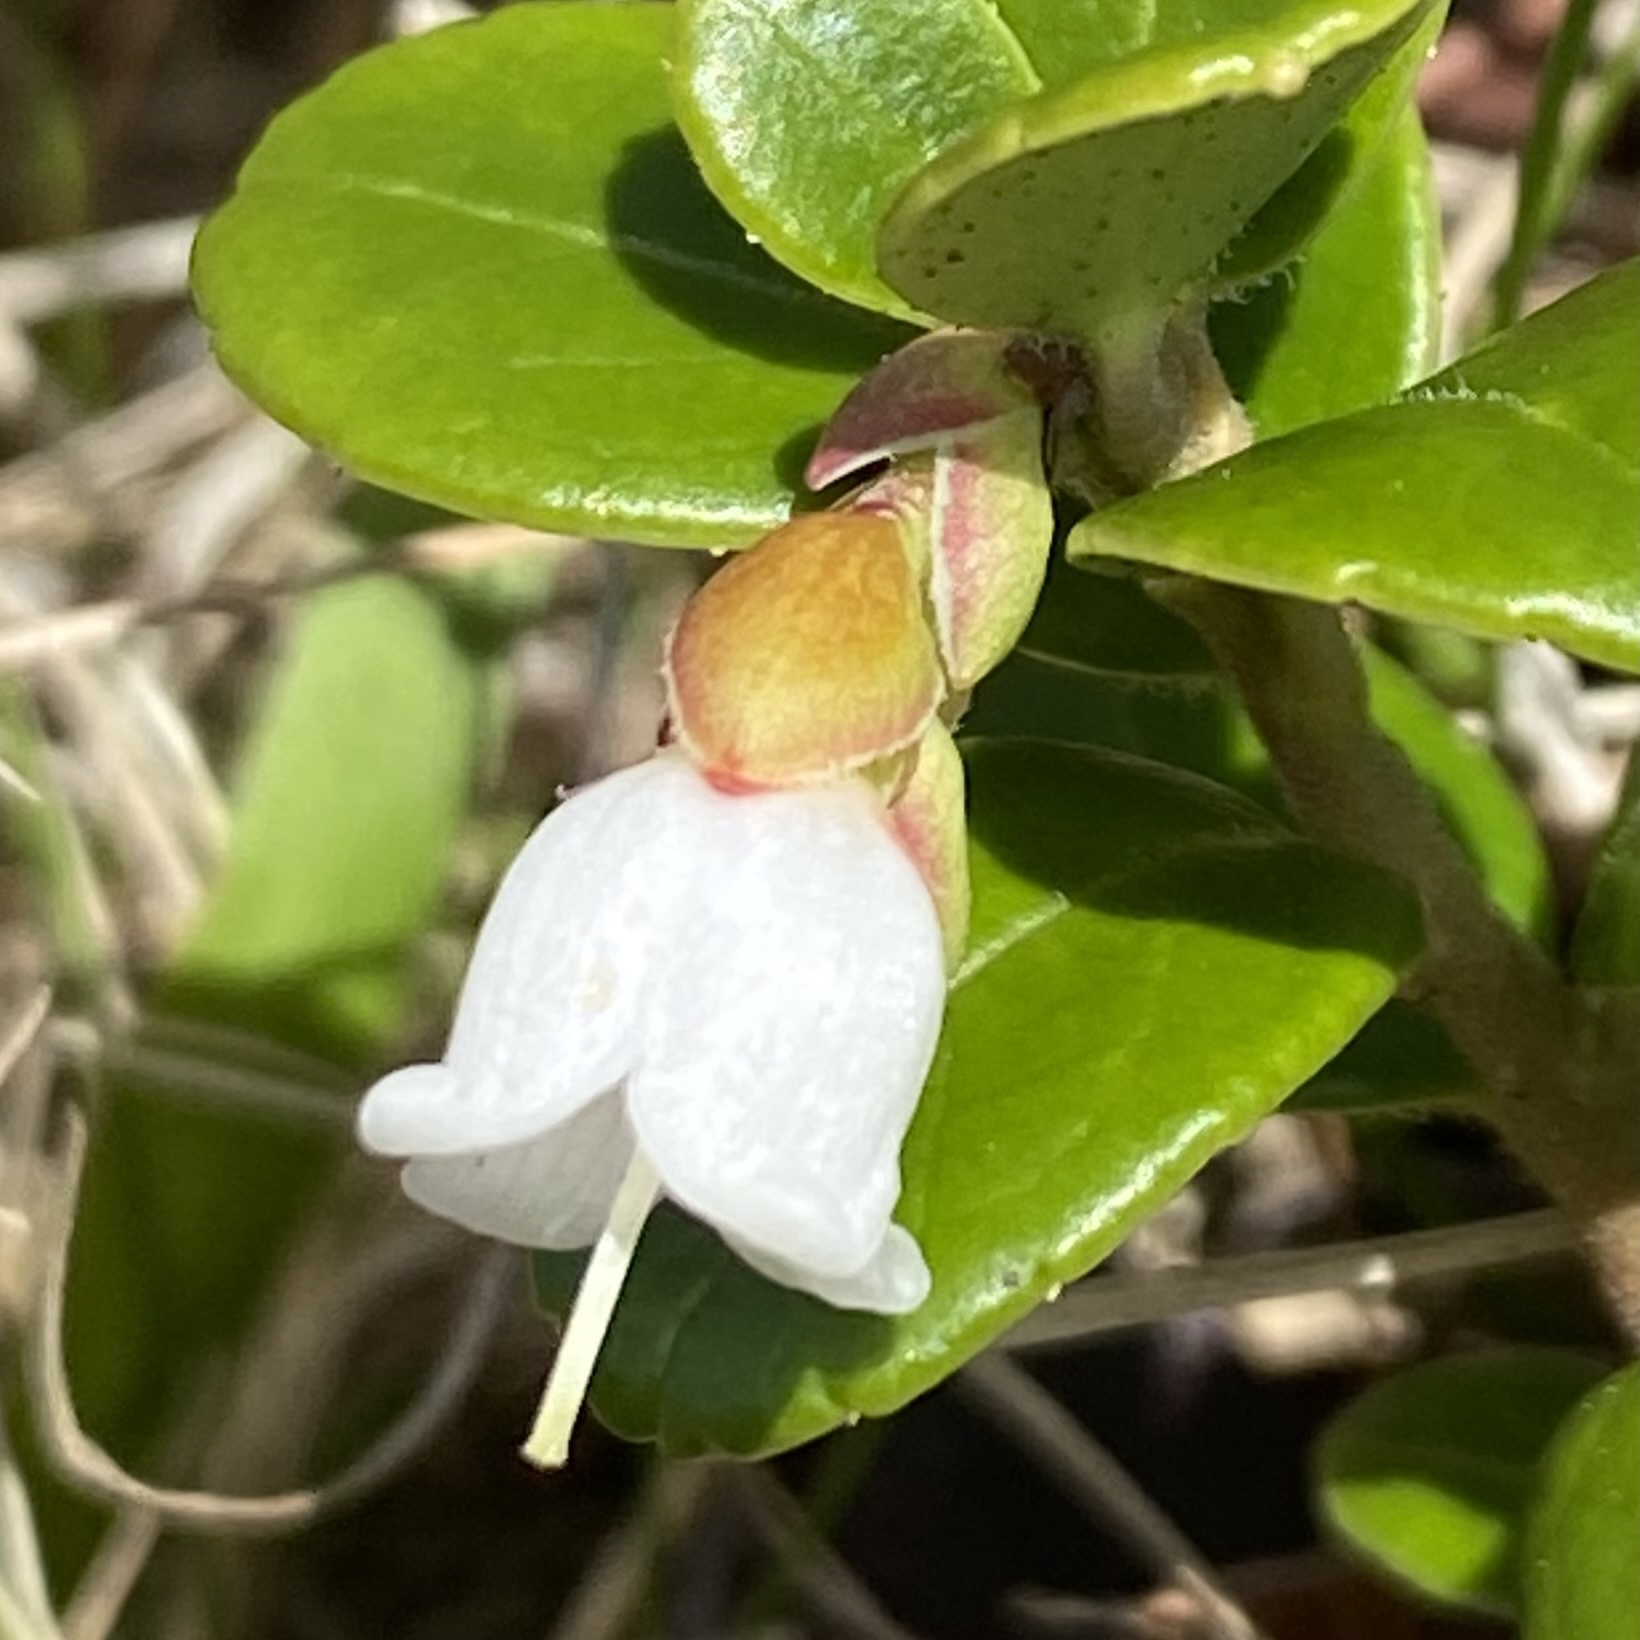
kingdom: Plantae
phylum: Tracheophyta
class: Magnoliopsida
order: Ericales
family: Ericaceae
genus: Vaccinium
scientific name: Vaccinium vitis-idaea
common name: Cowberry
